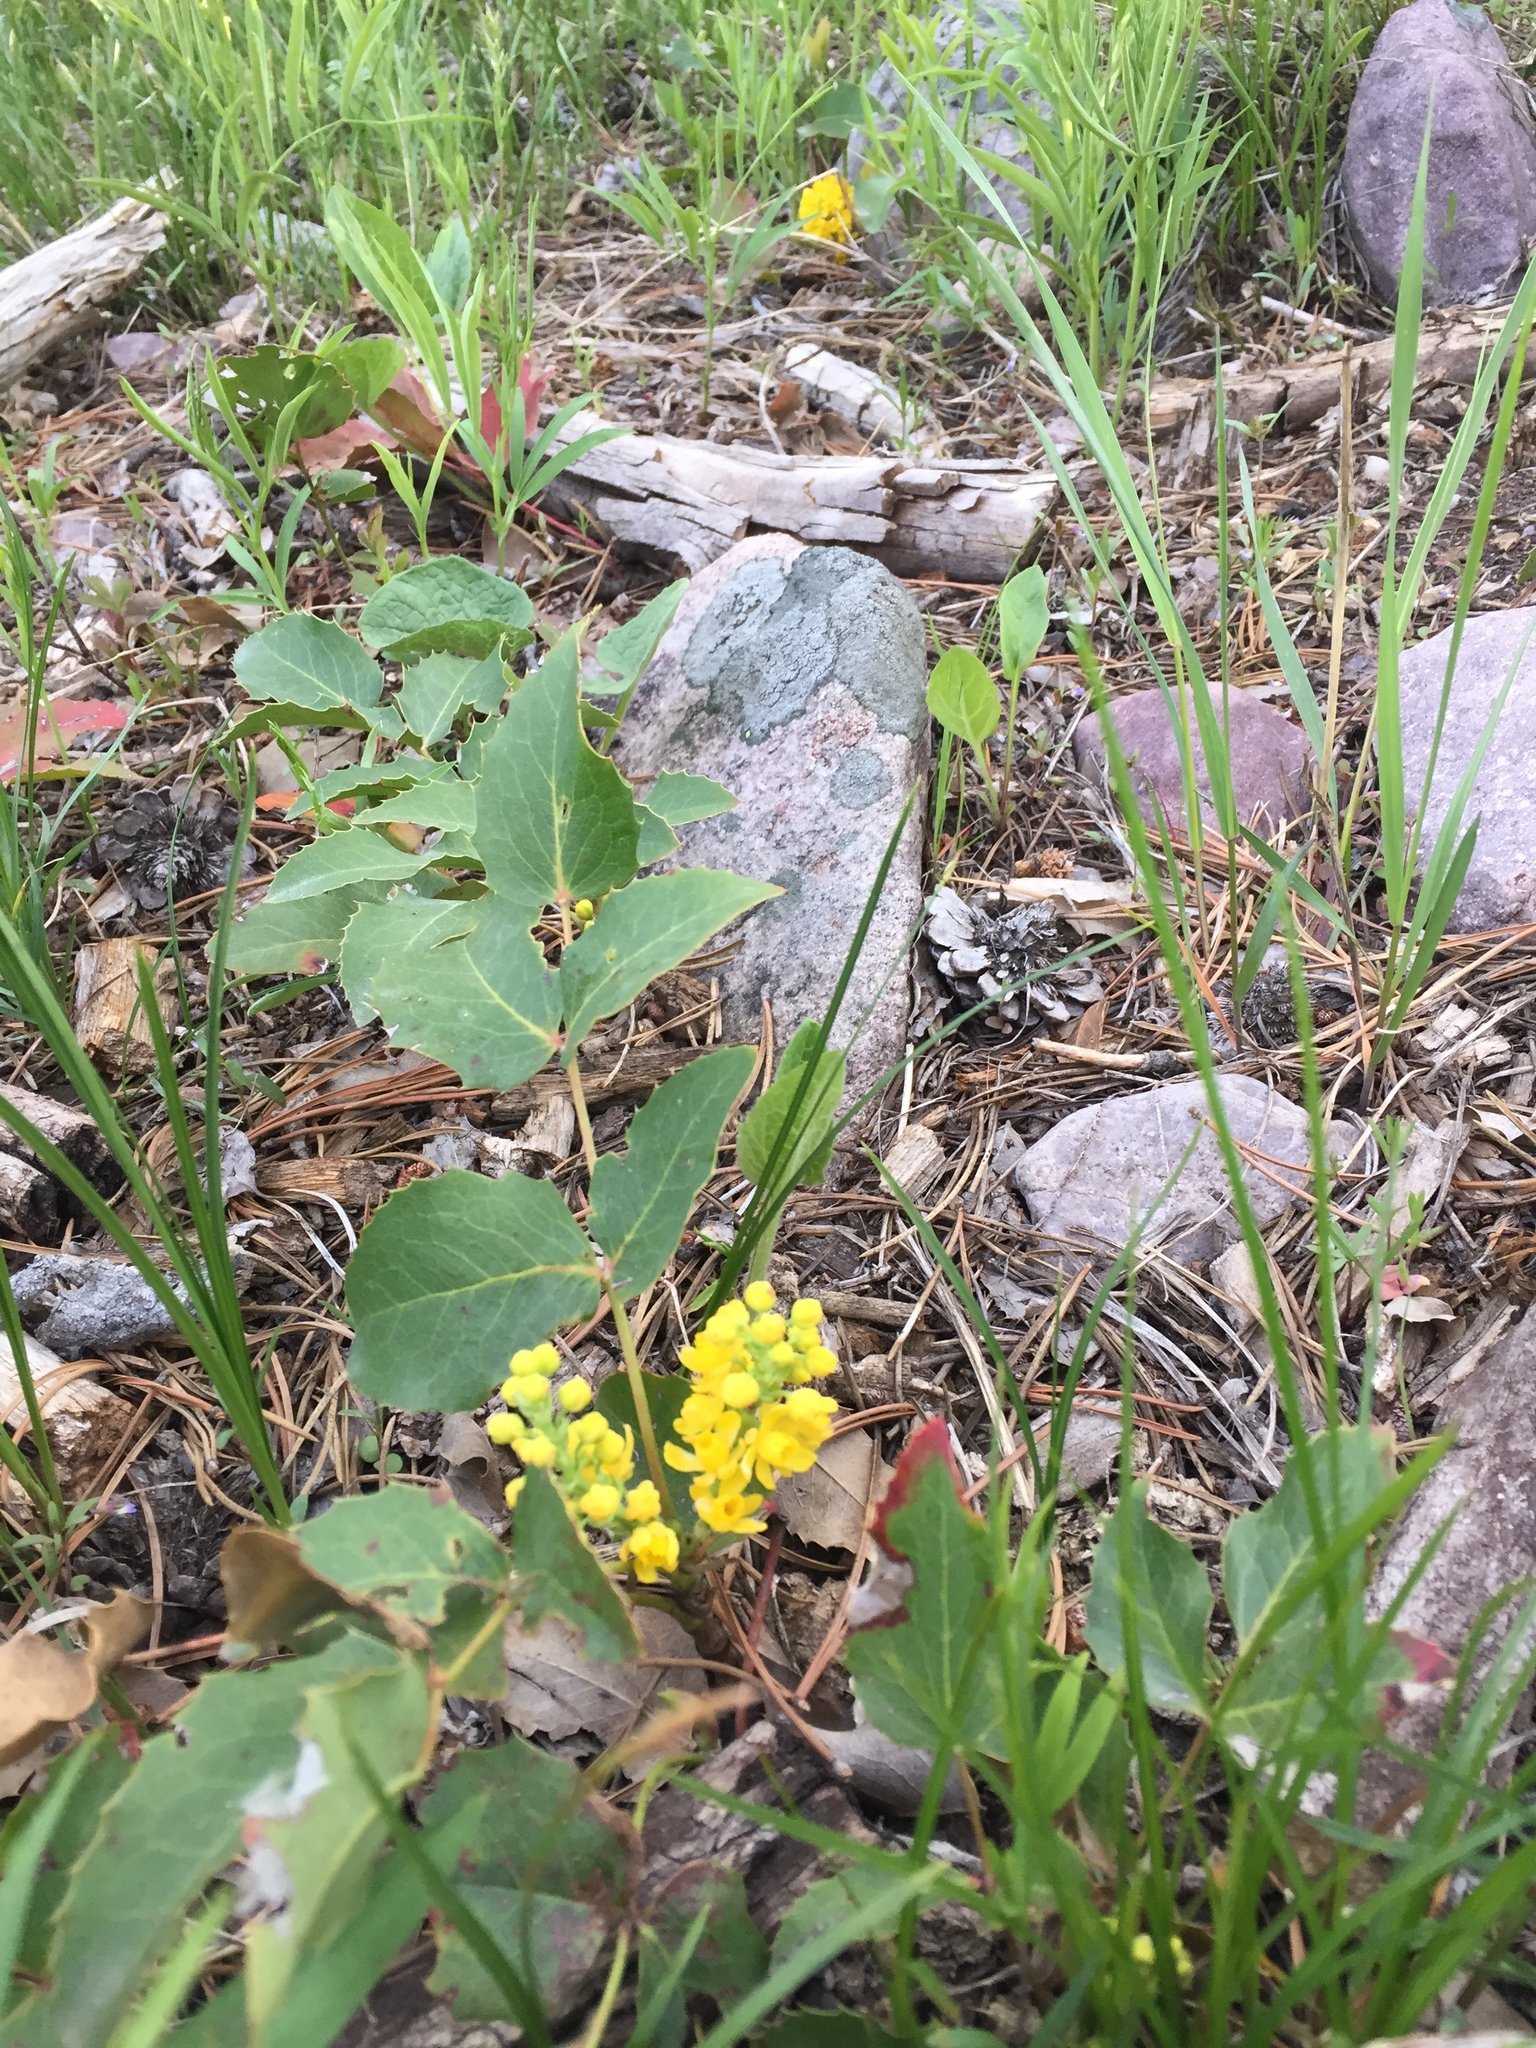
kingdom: Plantae
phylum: Tracheophyta
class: Magnoliopsida
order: Ranunculales
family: Berberidaceae
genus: Mahonia
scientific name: Mahonia repens
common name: Creeping oregon-grape
